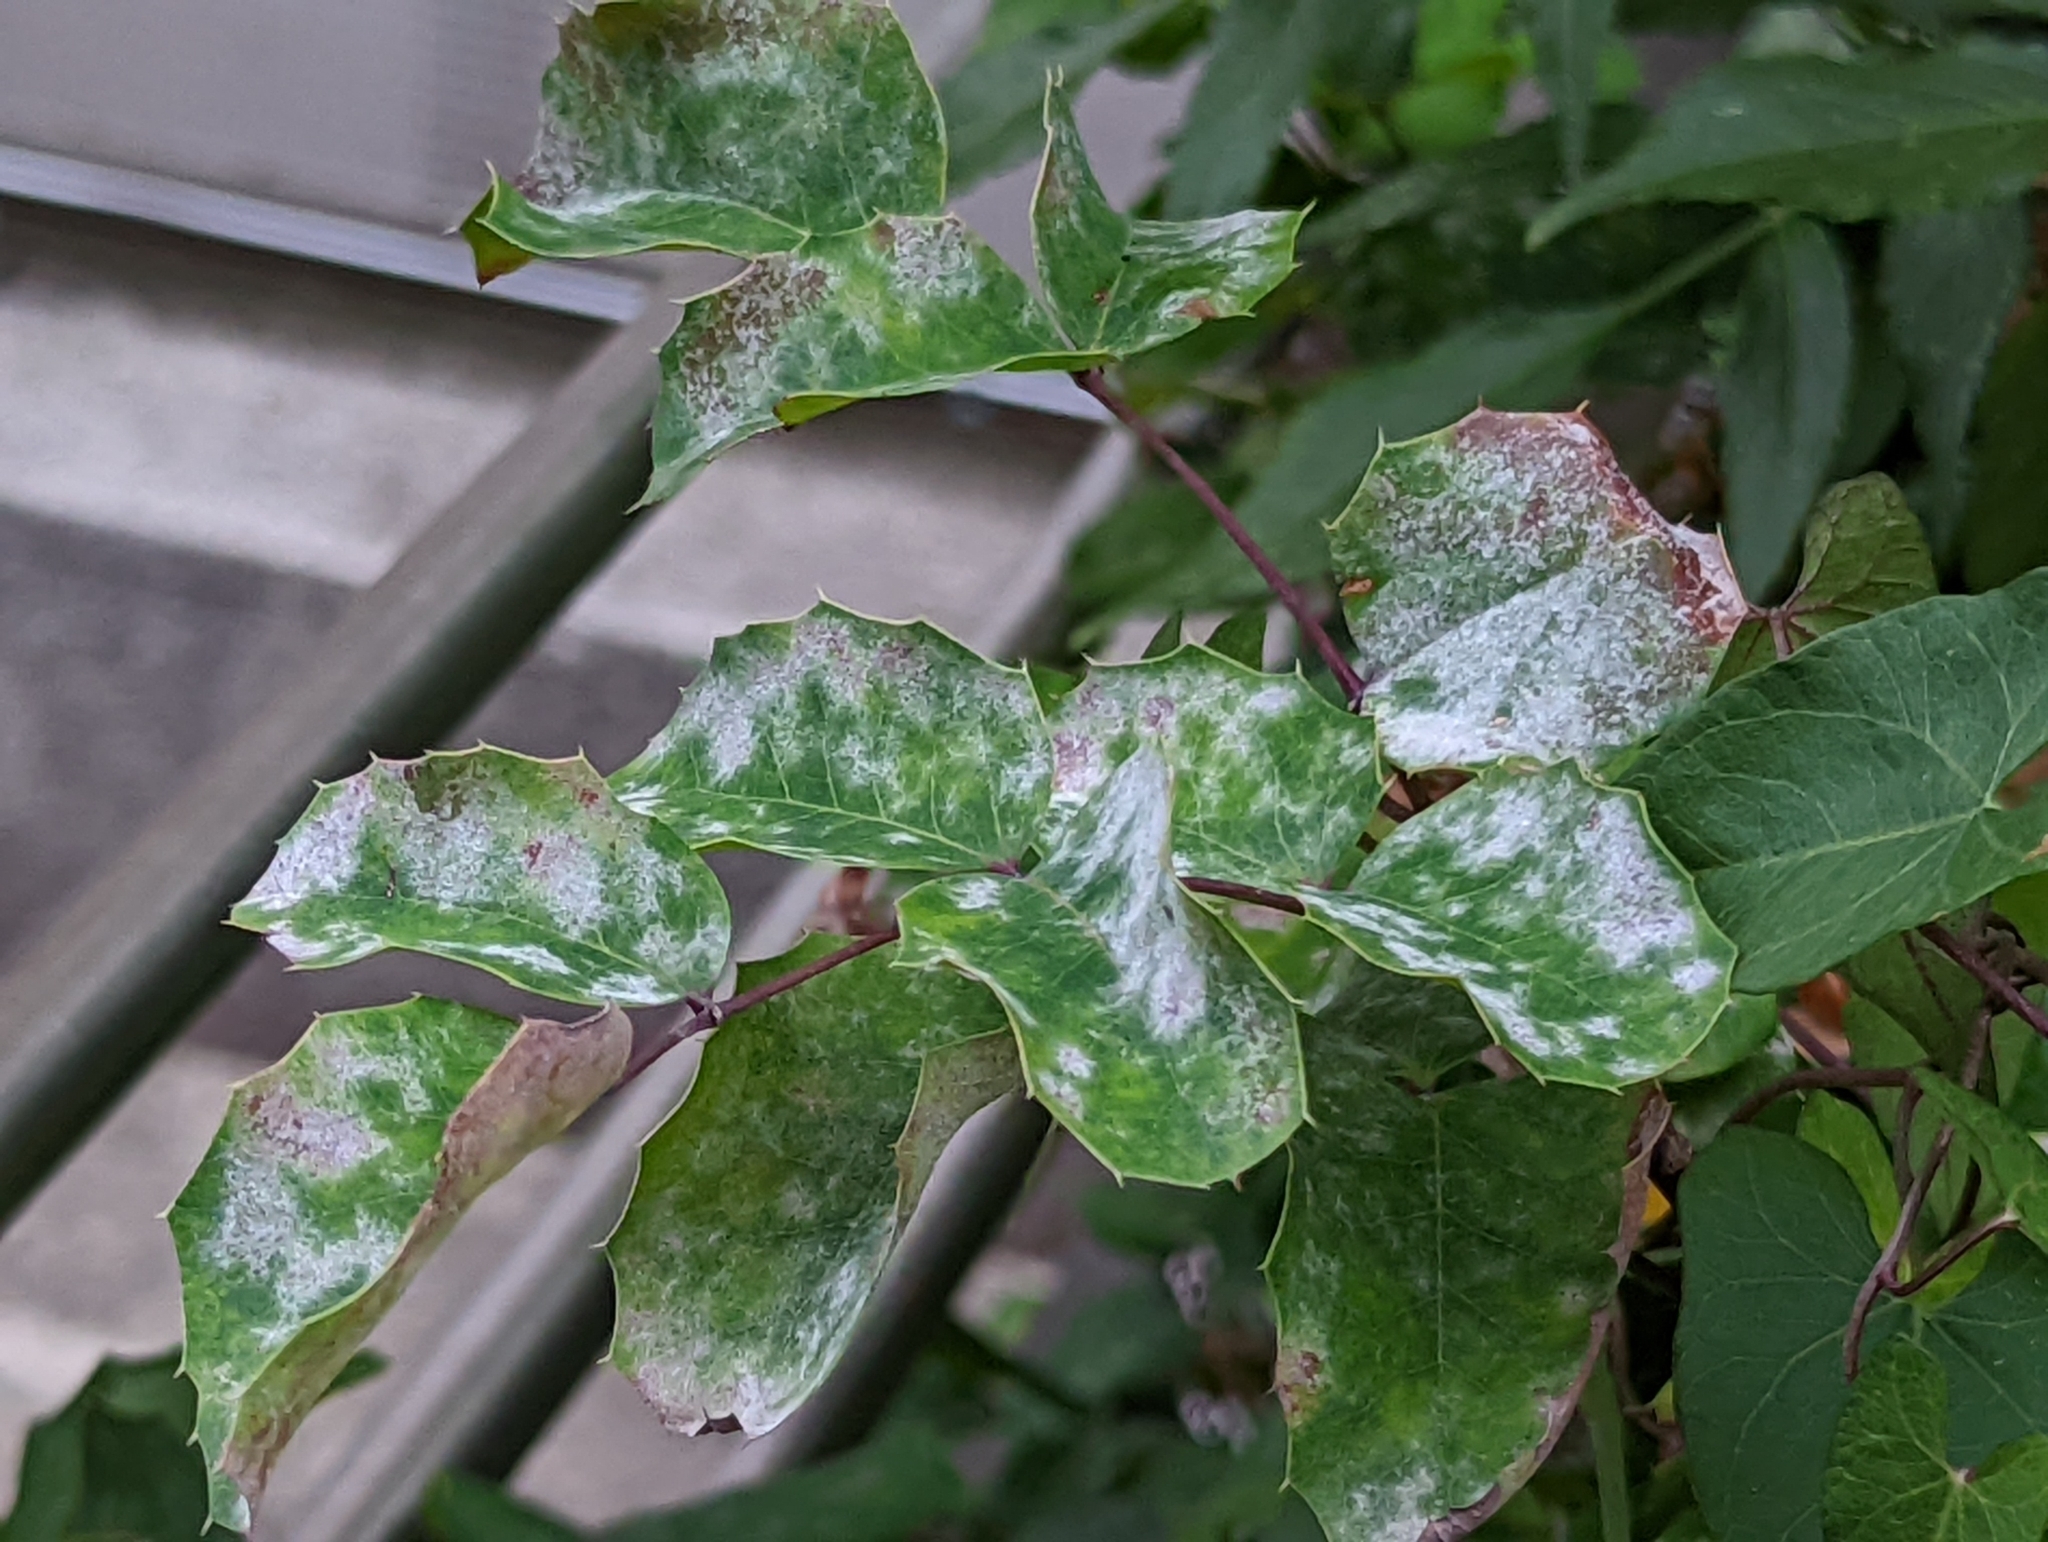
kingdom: Fungi
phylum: Ascomycota
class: Leotiomycetes
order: Helotiales
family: Erysiphaceae
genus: Erysiphe
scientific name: Erysiphe berberidis
